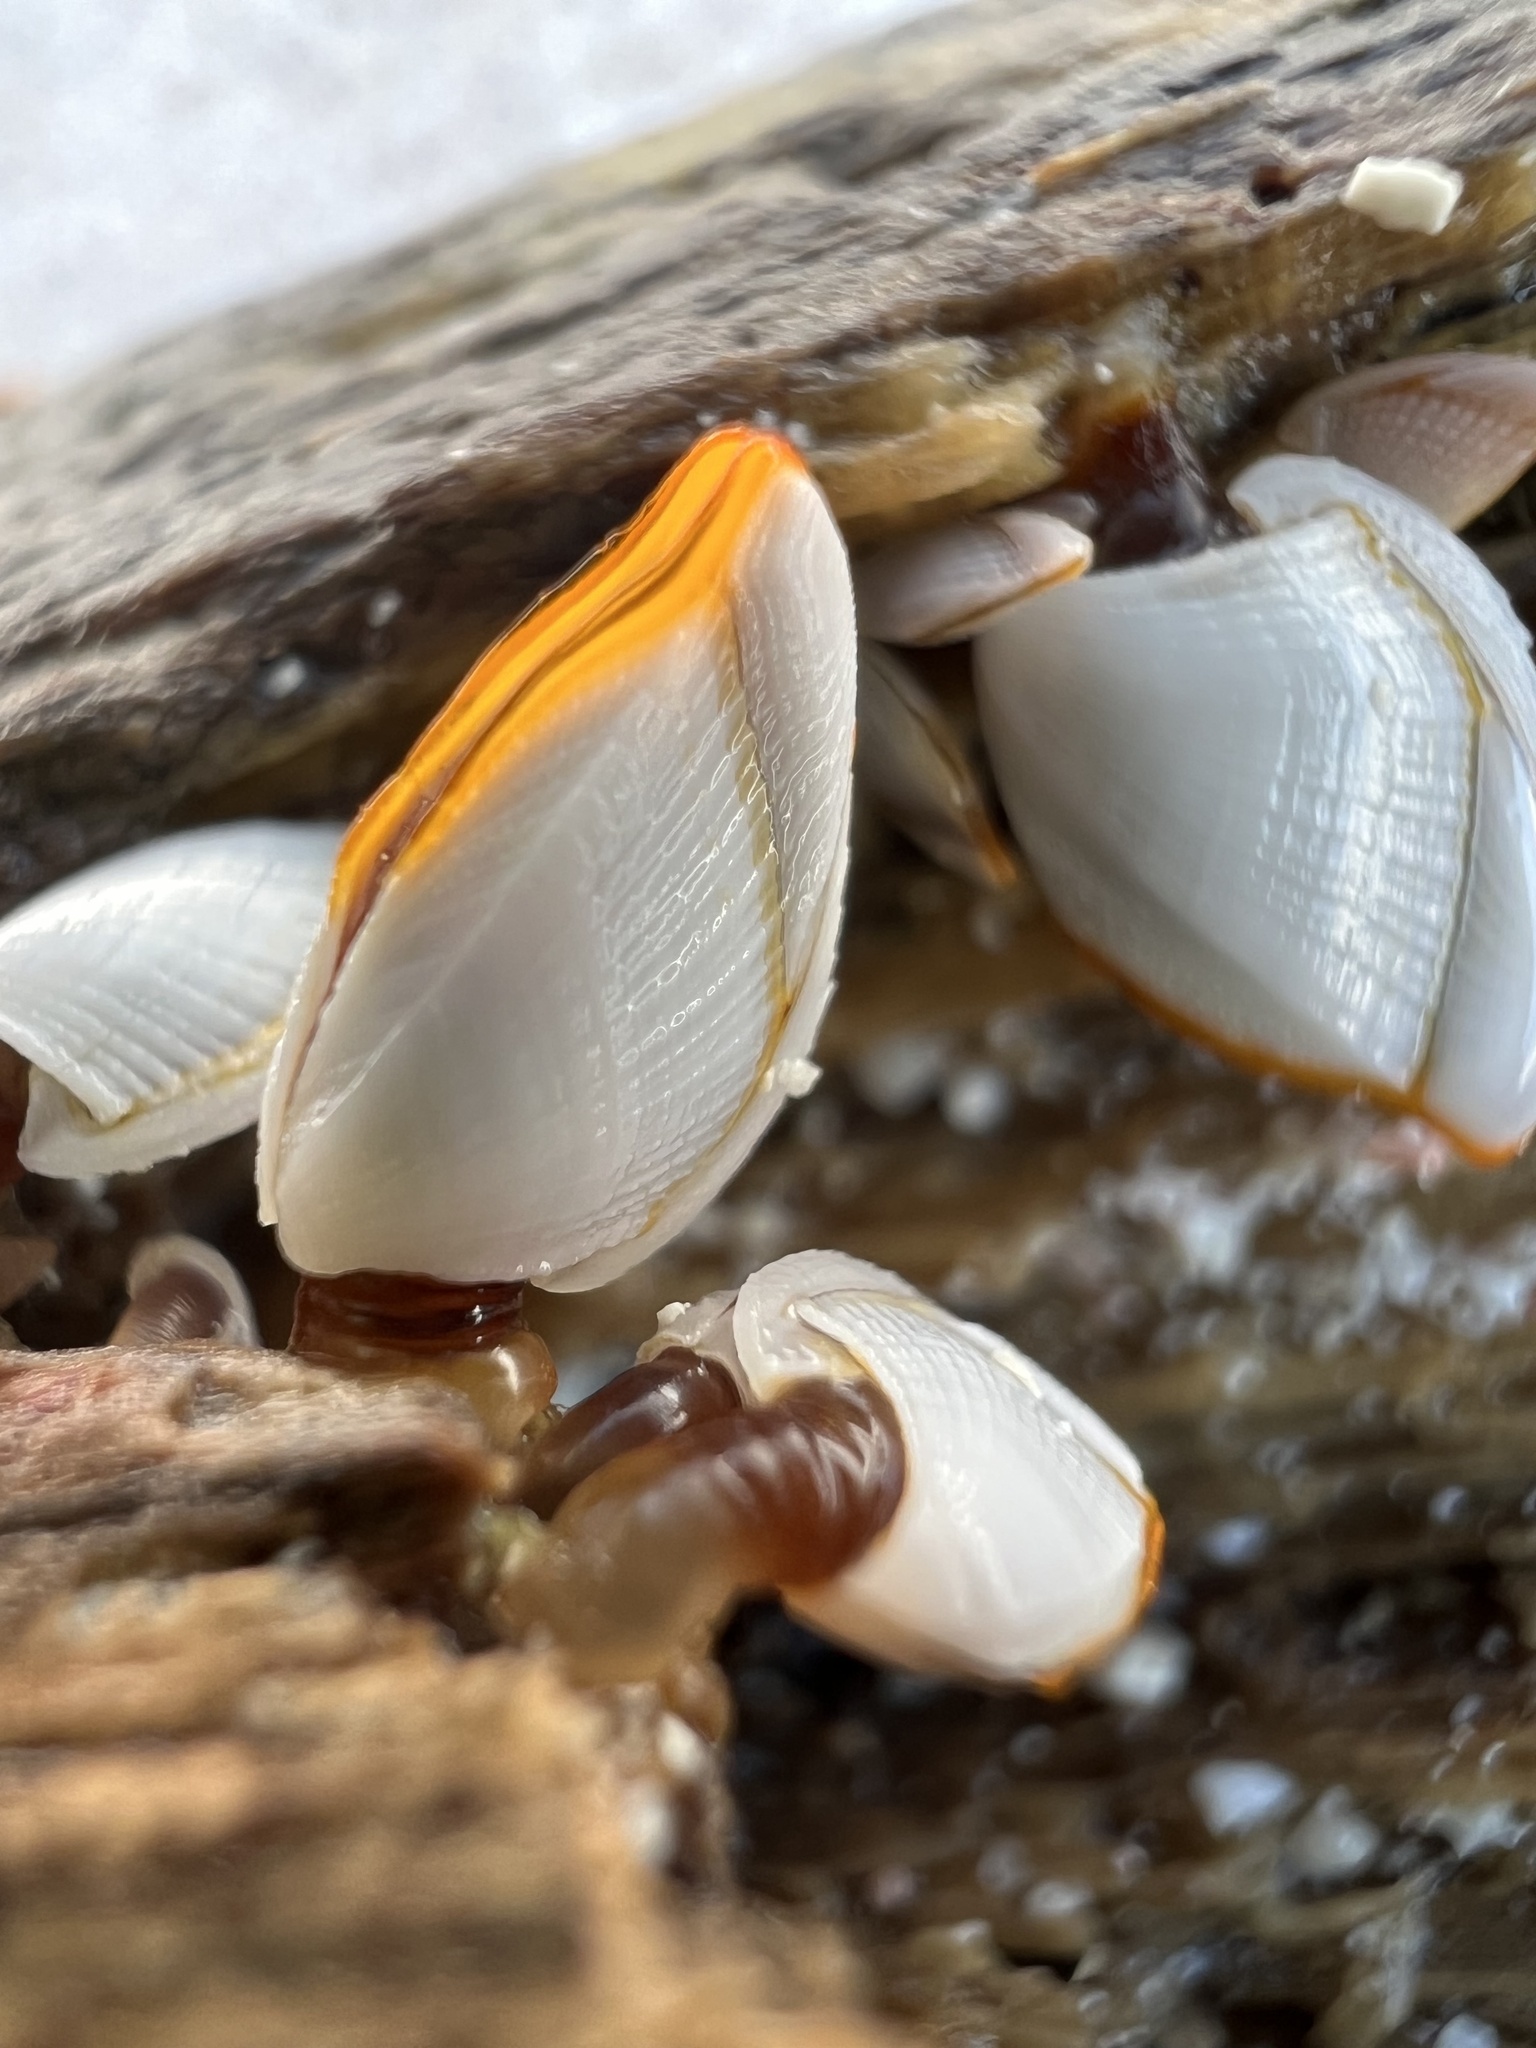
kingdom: Animalia
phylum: Arthropoda
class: Maxillopoda
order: Pedunculata
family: Lepadidae
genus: Lepas
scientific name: Lepas anserifera
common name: Goose barnacle
